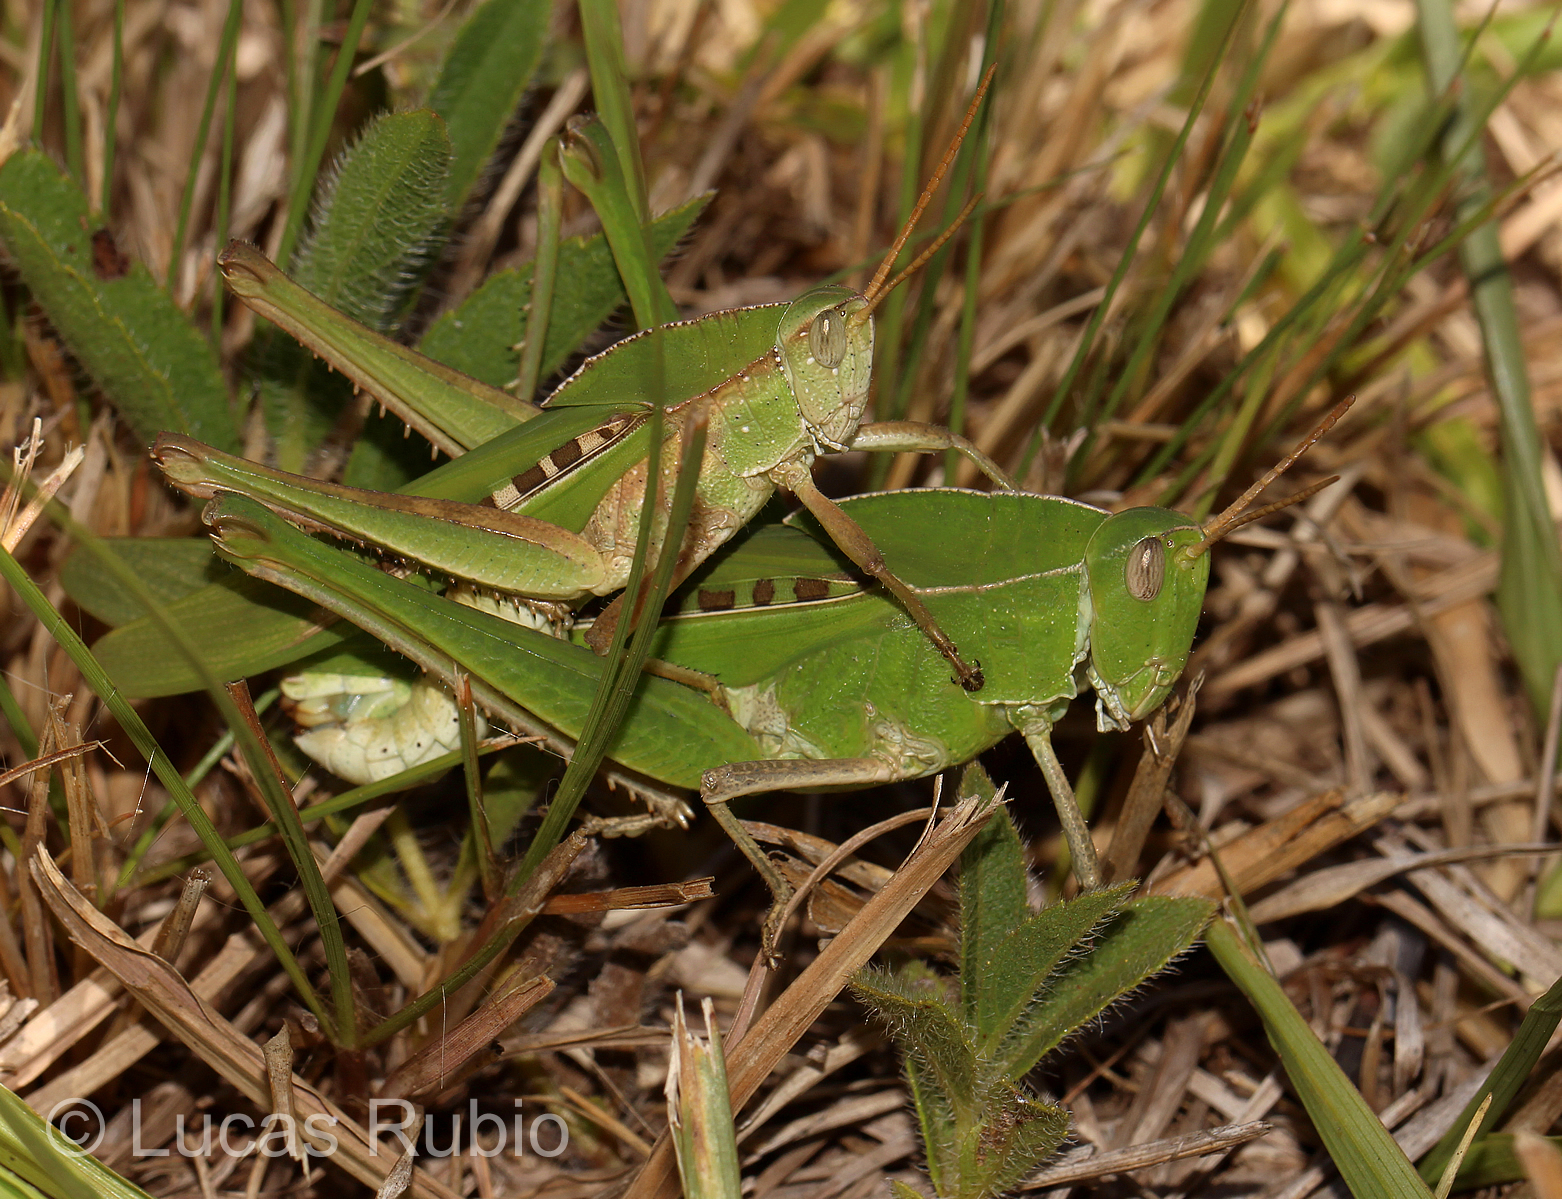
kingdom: Animalia
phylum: Arthropoda
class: Insecta
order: Orthoptera
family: Romaleidae
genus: Xyleus
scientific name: Xyleus laevipes
